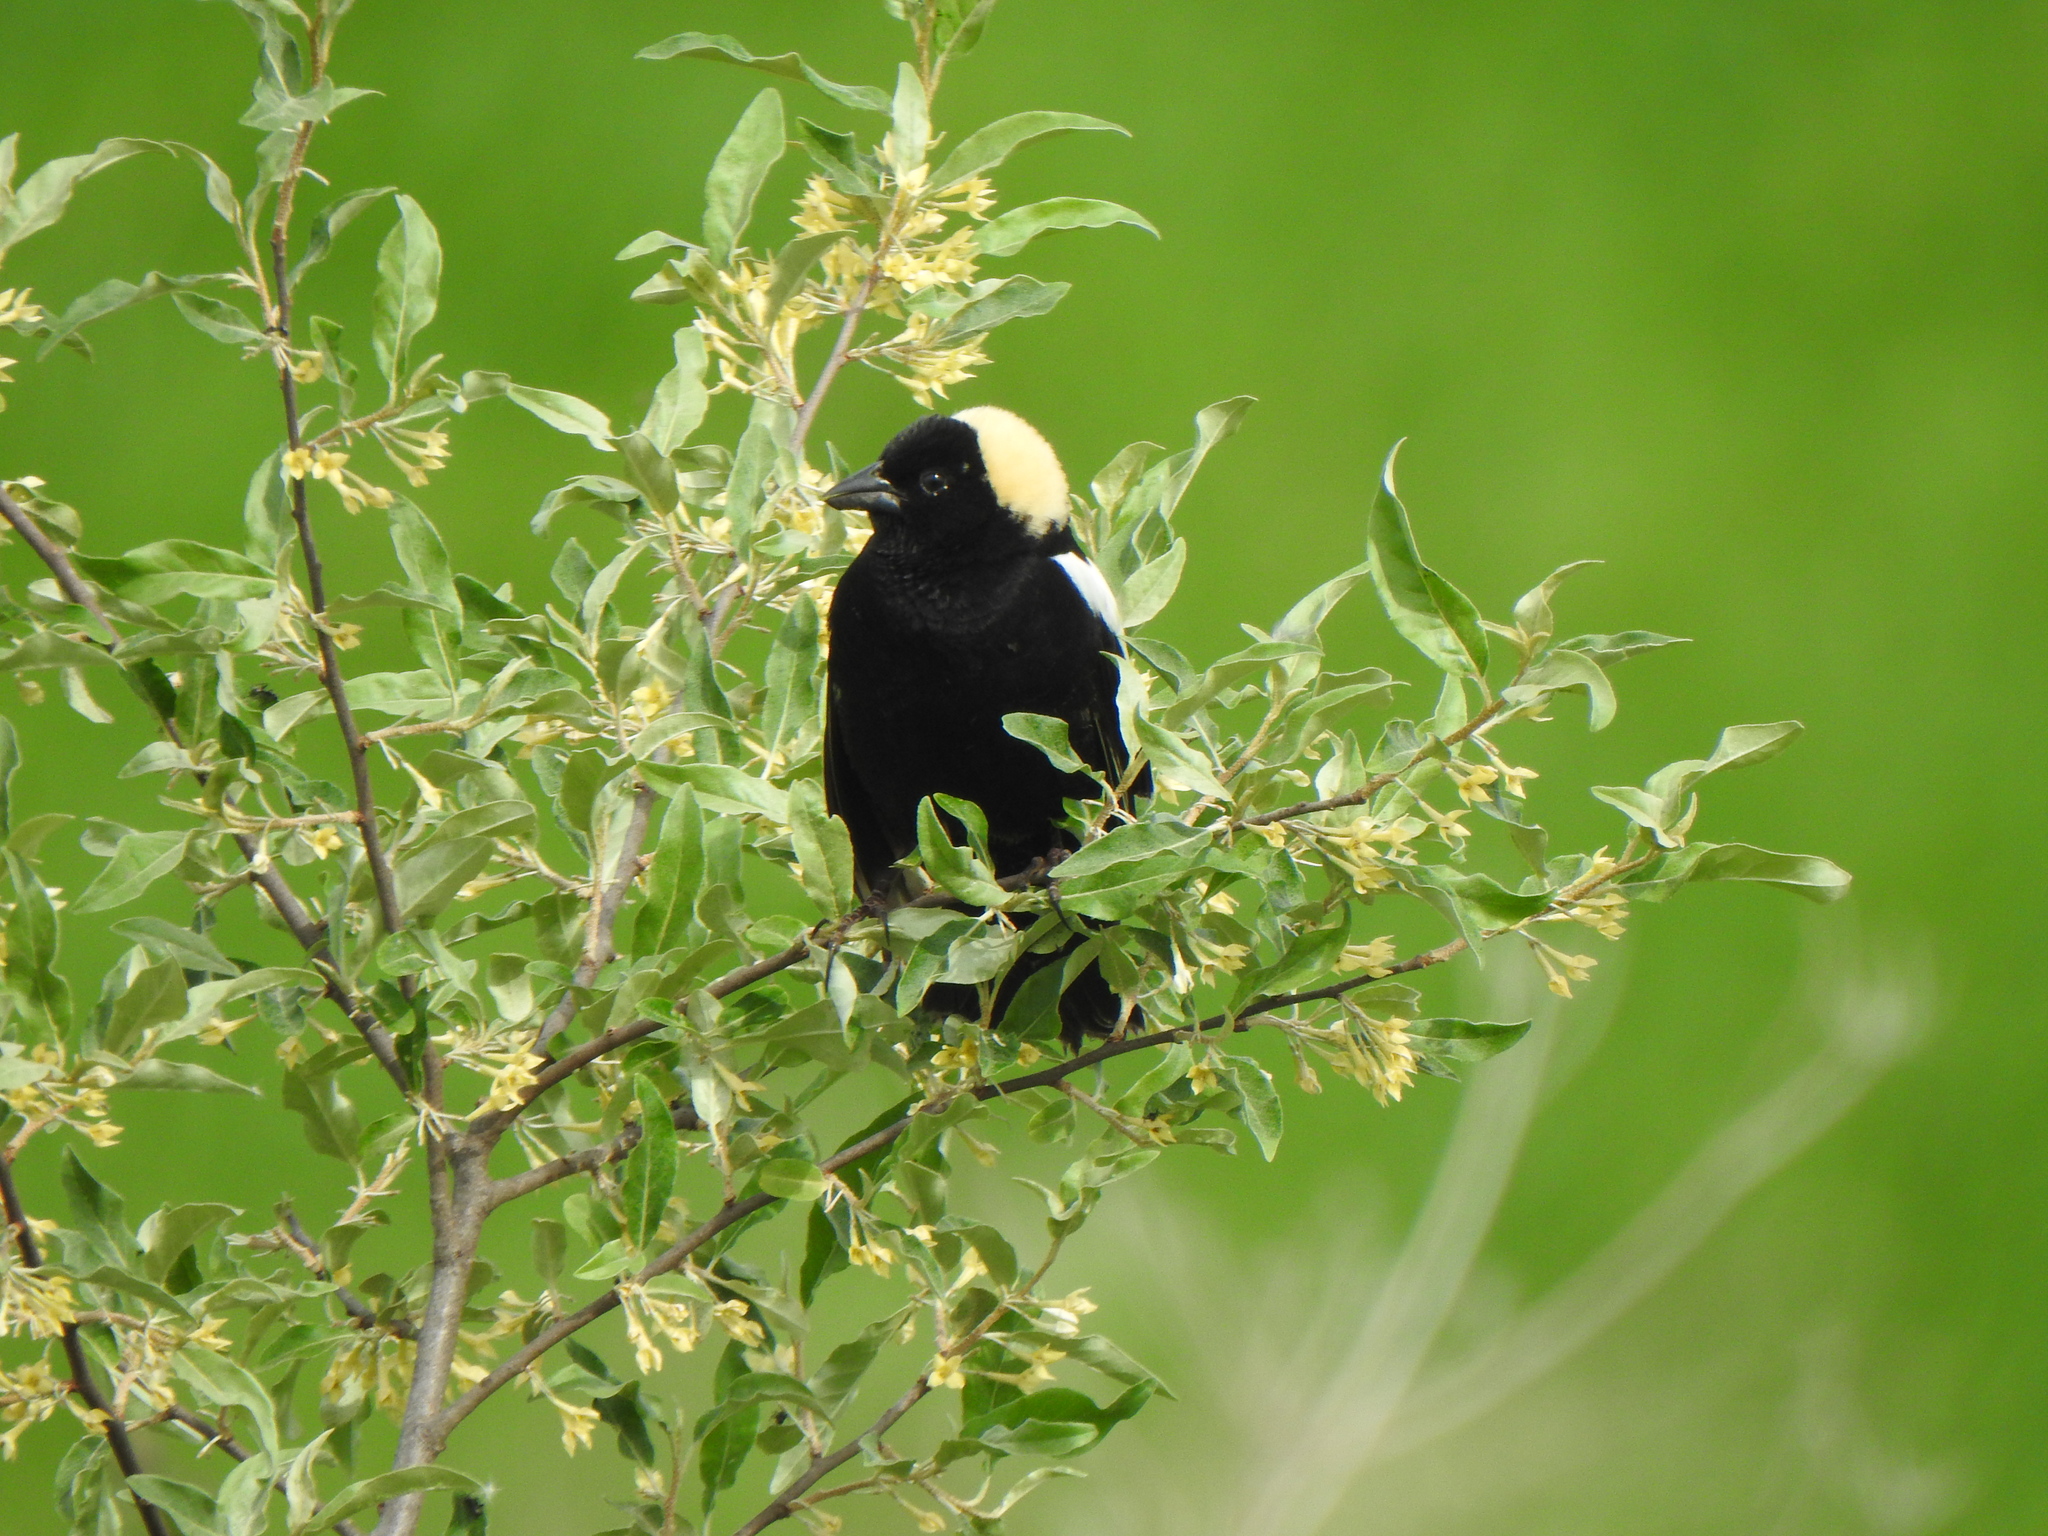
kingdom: Animalia
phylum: Chordata
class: Aves
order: Passeriformes
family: Icteridae
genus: Dolichonyx
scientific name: Dolichonyx oryzivorus
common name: Bobolink
